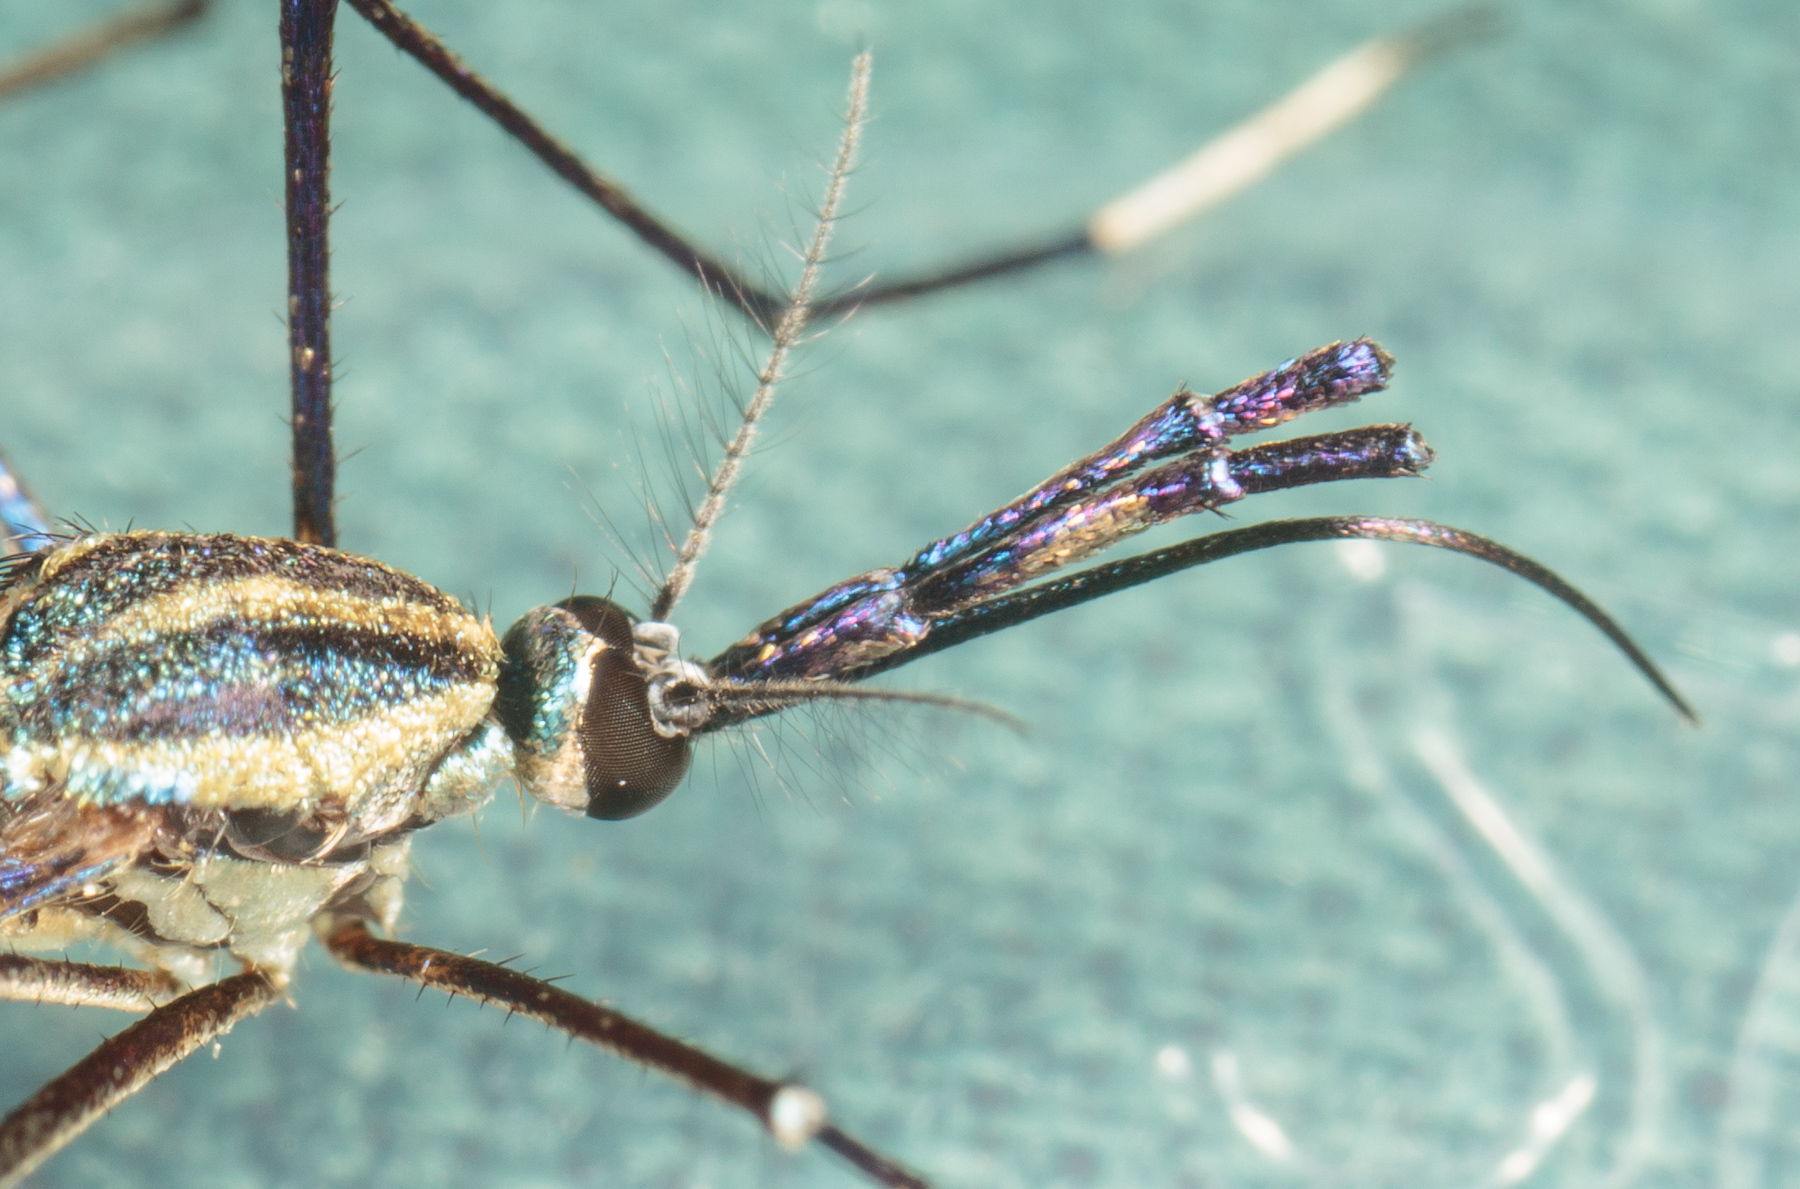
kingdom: Animalia
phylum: Arthropoda
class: Insecta
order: Diptera
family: Culicidae
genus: Toxorhynchites
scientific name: Toxorhynchites rutilus
